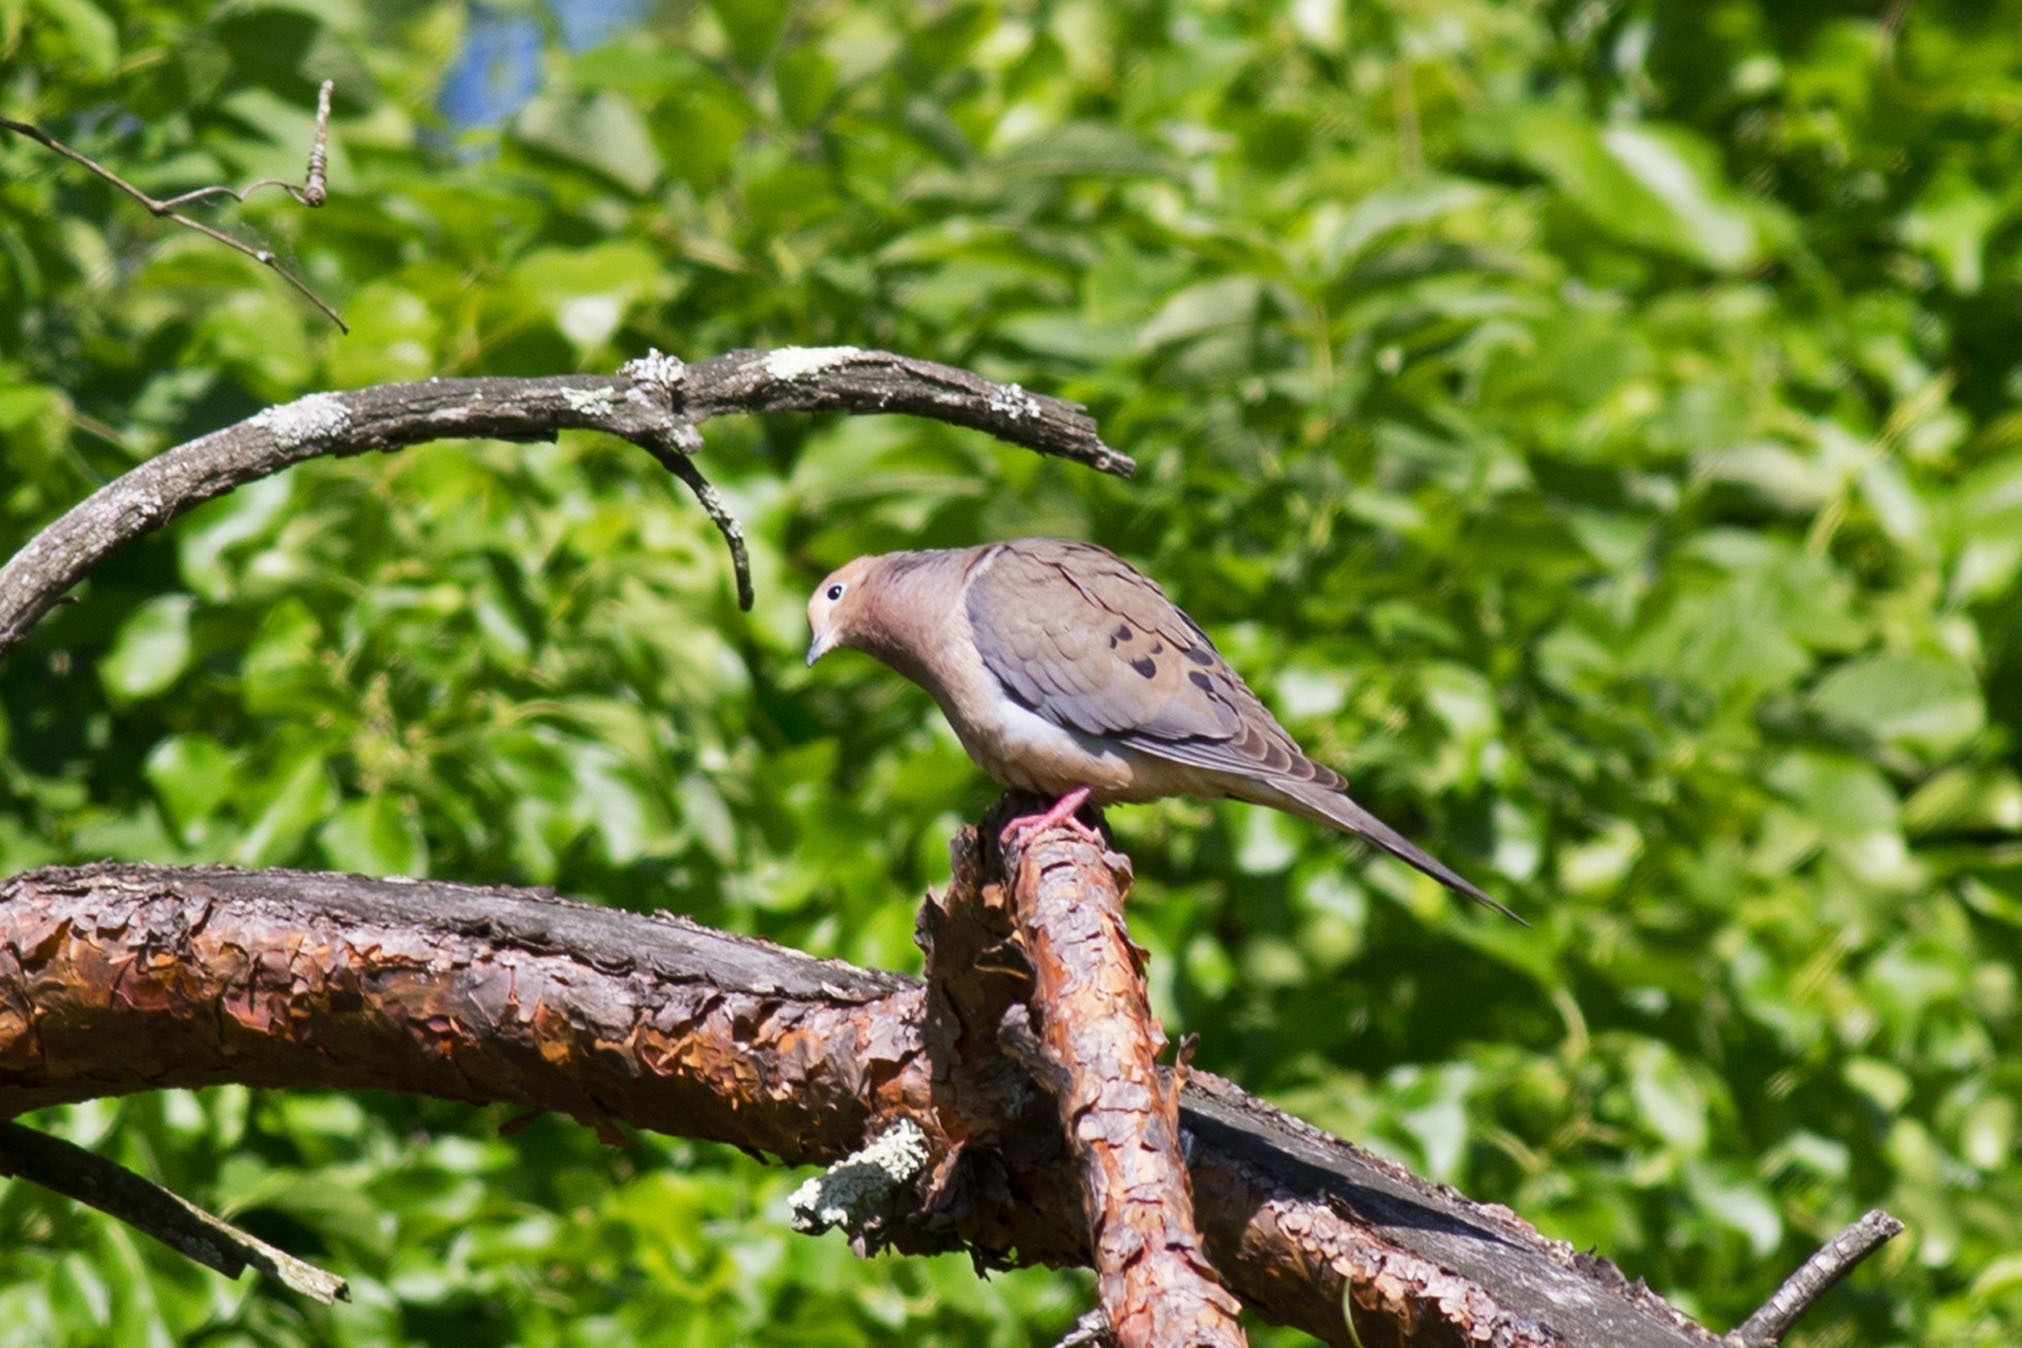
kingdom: Animalia
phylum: Chordata
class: Aves
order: Columbiformes
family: Columbidae
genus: Zenaida
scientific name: Zenaida macroura
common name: Mourning dove
